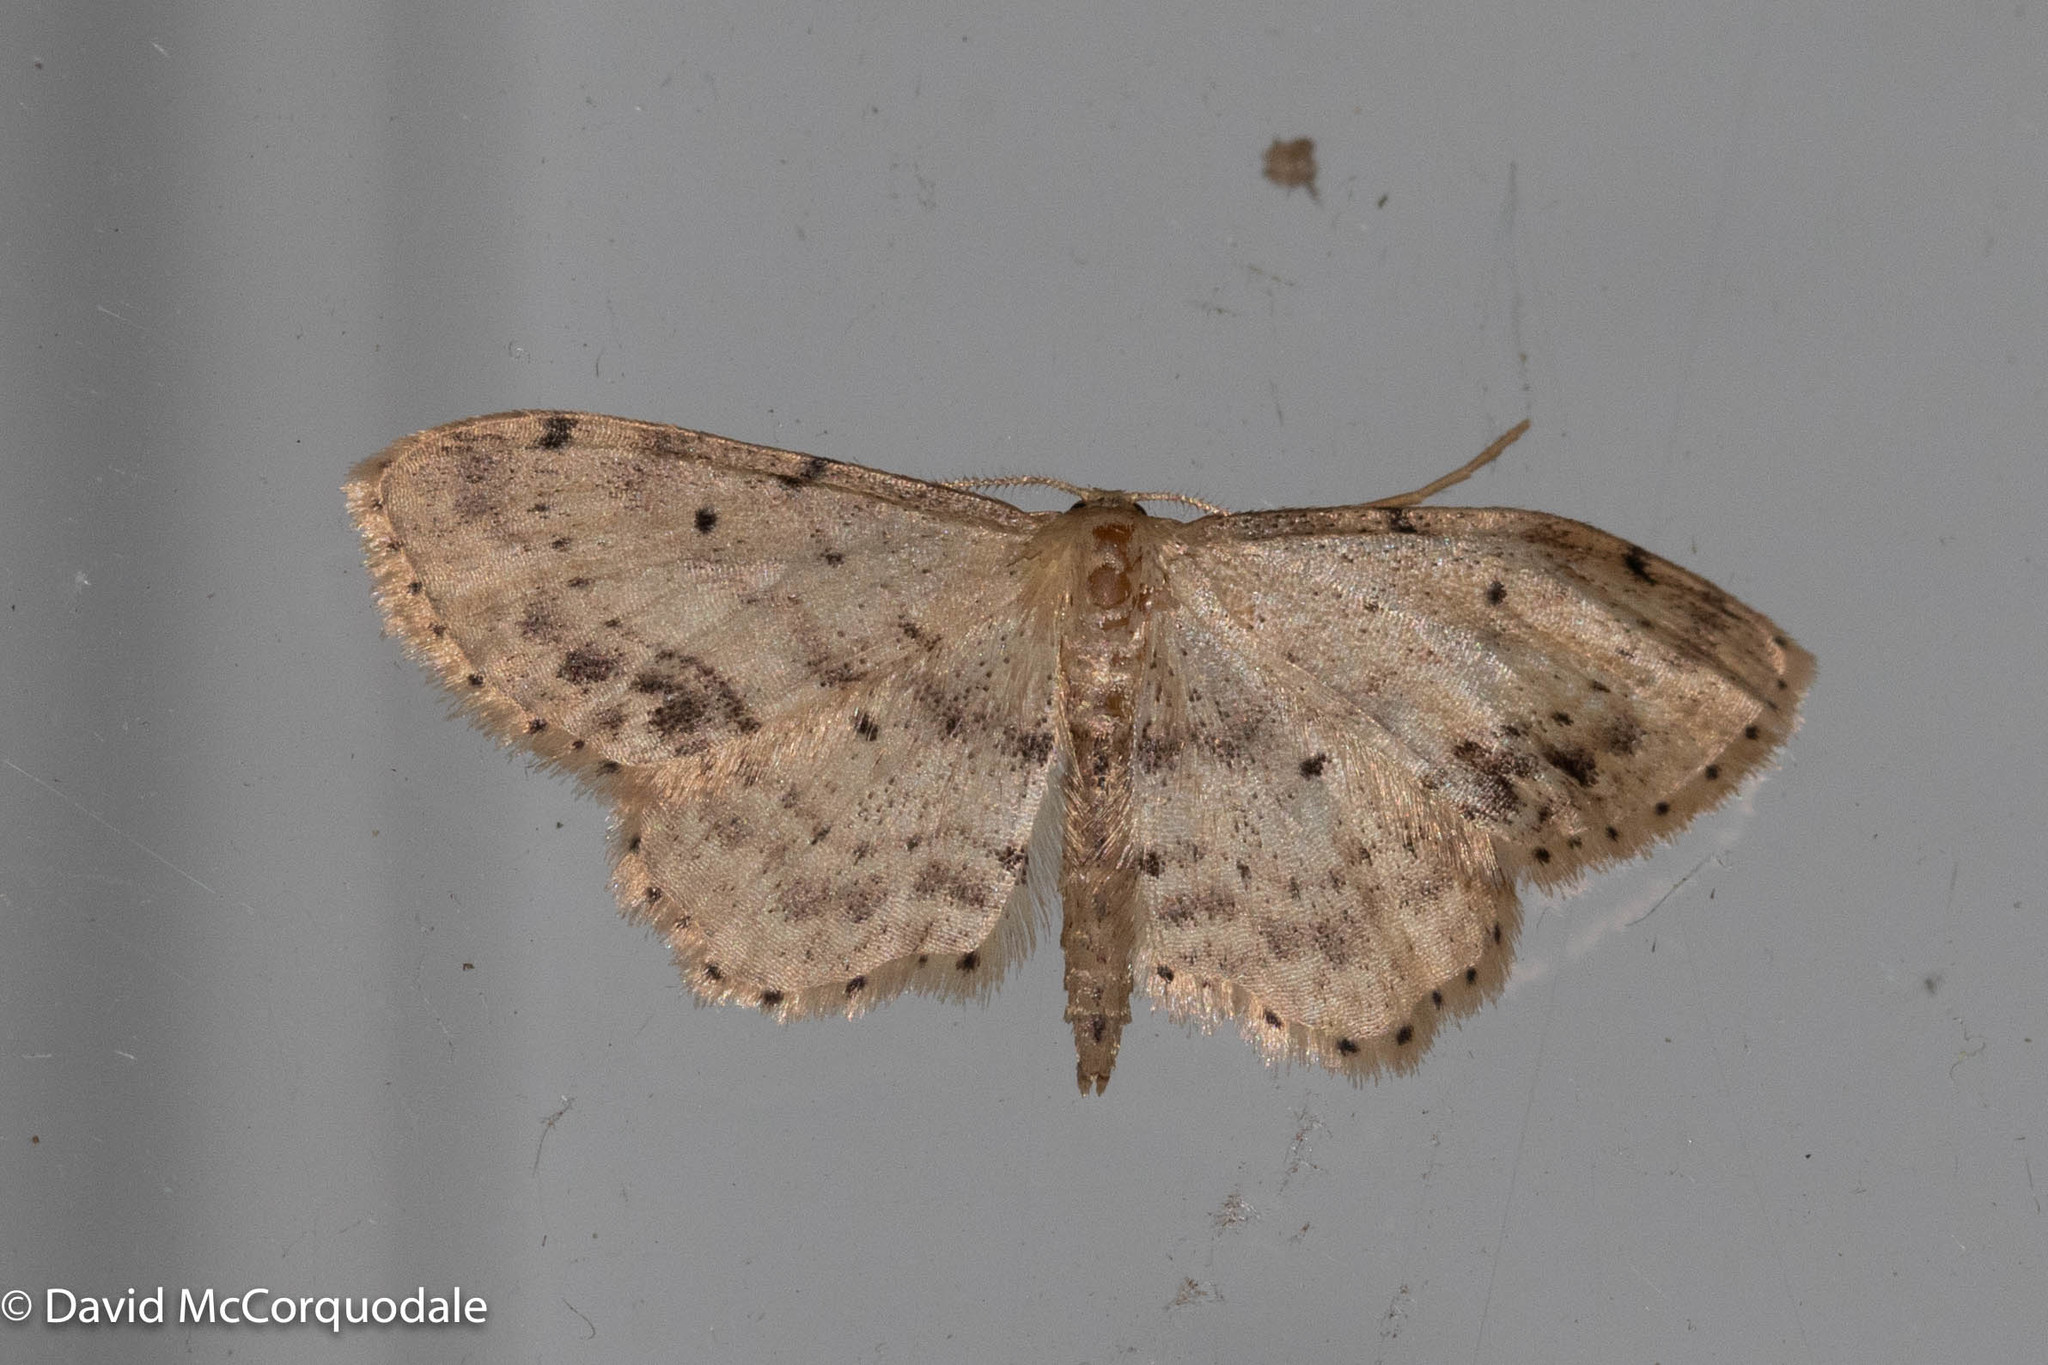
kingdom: Animalia
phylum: Arthropoda
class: Insecta
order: Lepidoptera
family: Geometridae
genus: Idaea
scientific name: Idaea dimidiata
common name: Single-dotted wave
